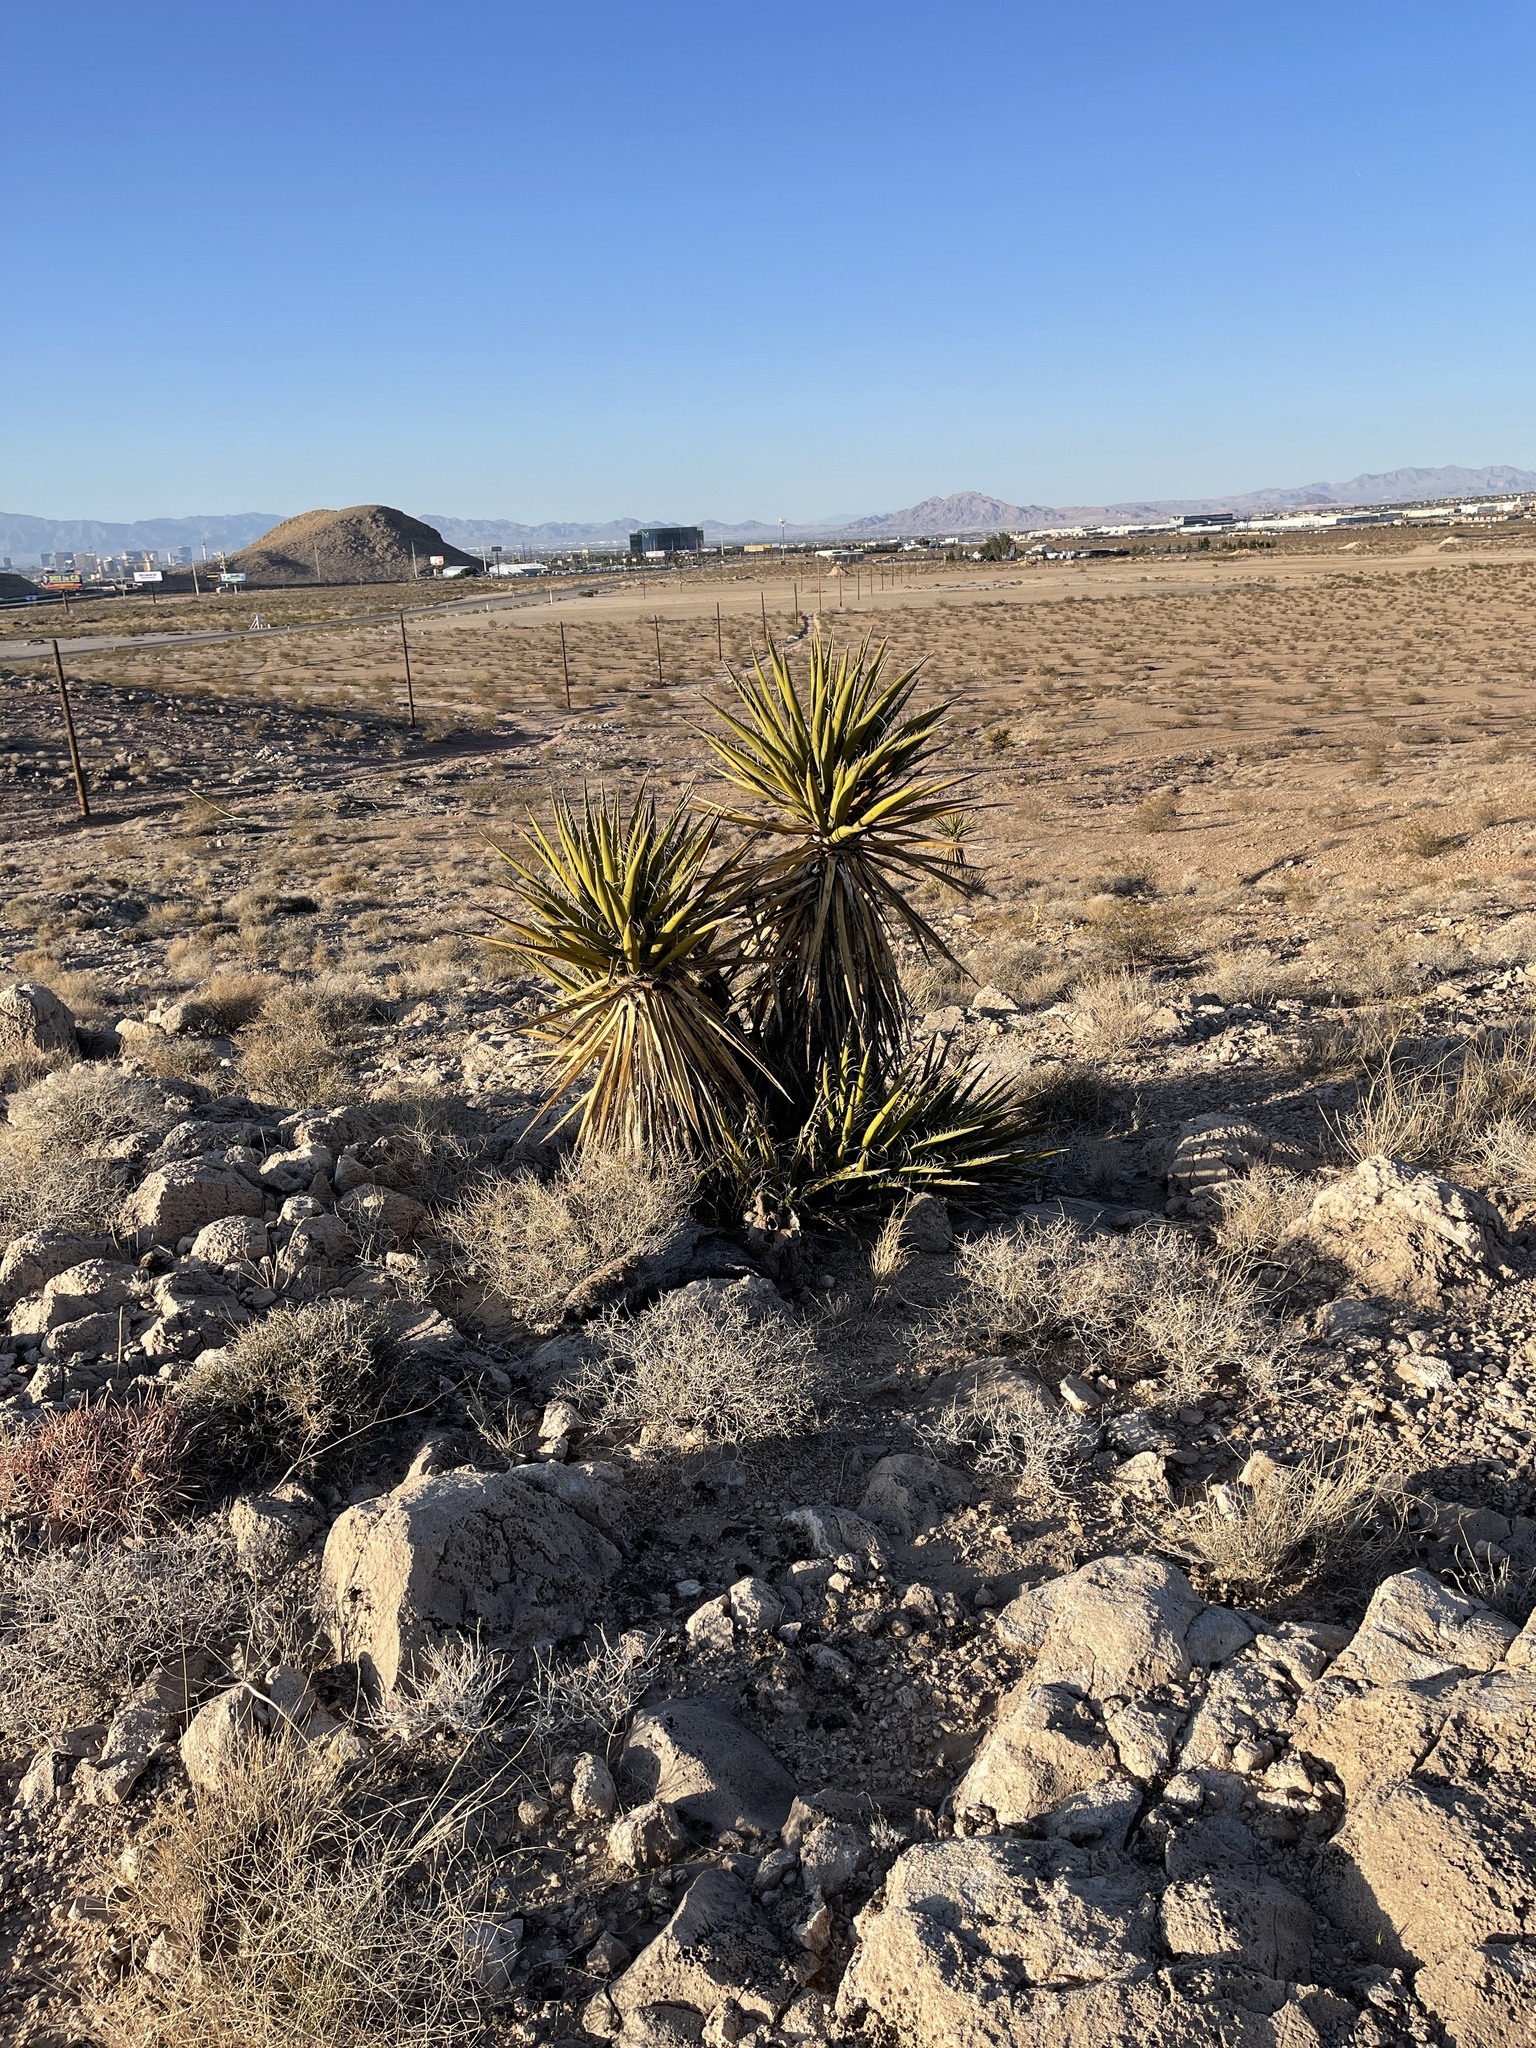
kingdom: Plantae
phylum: Tracheophyta
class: Liliopsida
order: Asparagales
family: Asparagaceae
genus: Yucca
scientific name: Yucca schidigera
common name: Mojave yucca
